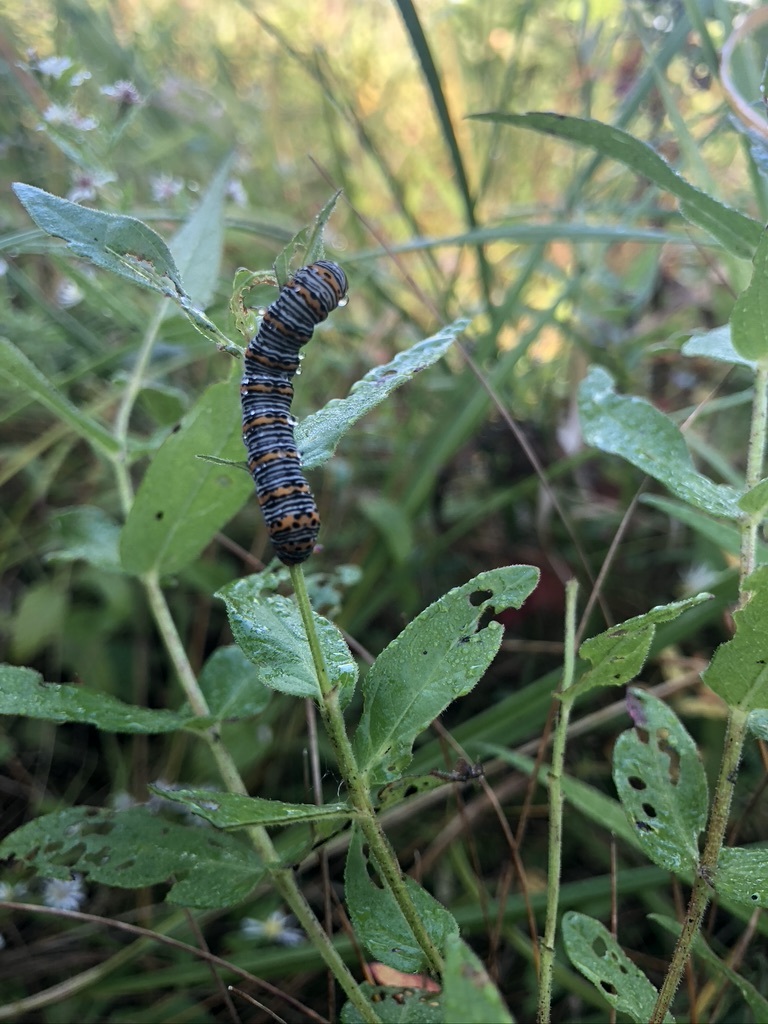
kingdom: Animalia
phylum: Arthropoda
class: Insecta
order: Lepidoptera
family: Noctuidae
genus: Eudryas
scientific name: Eudryas unio
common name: Pearly wood-nymph
